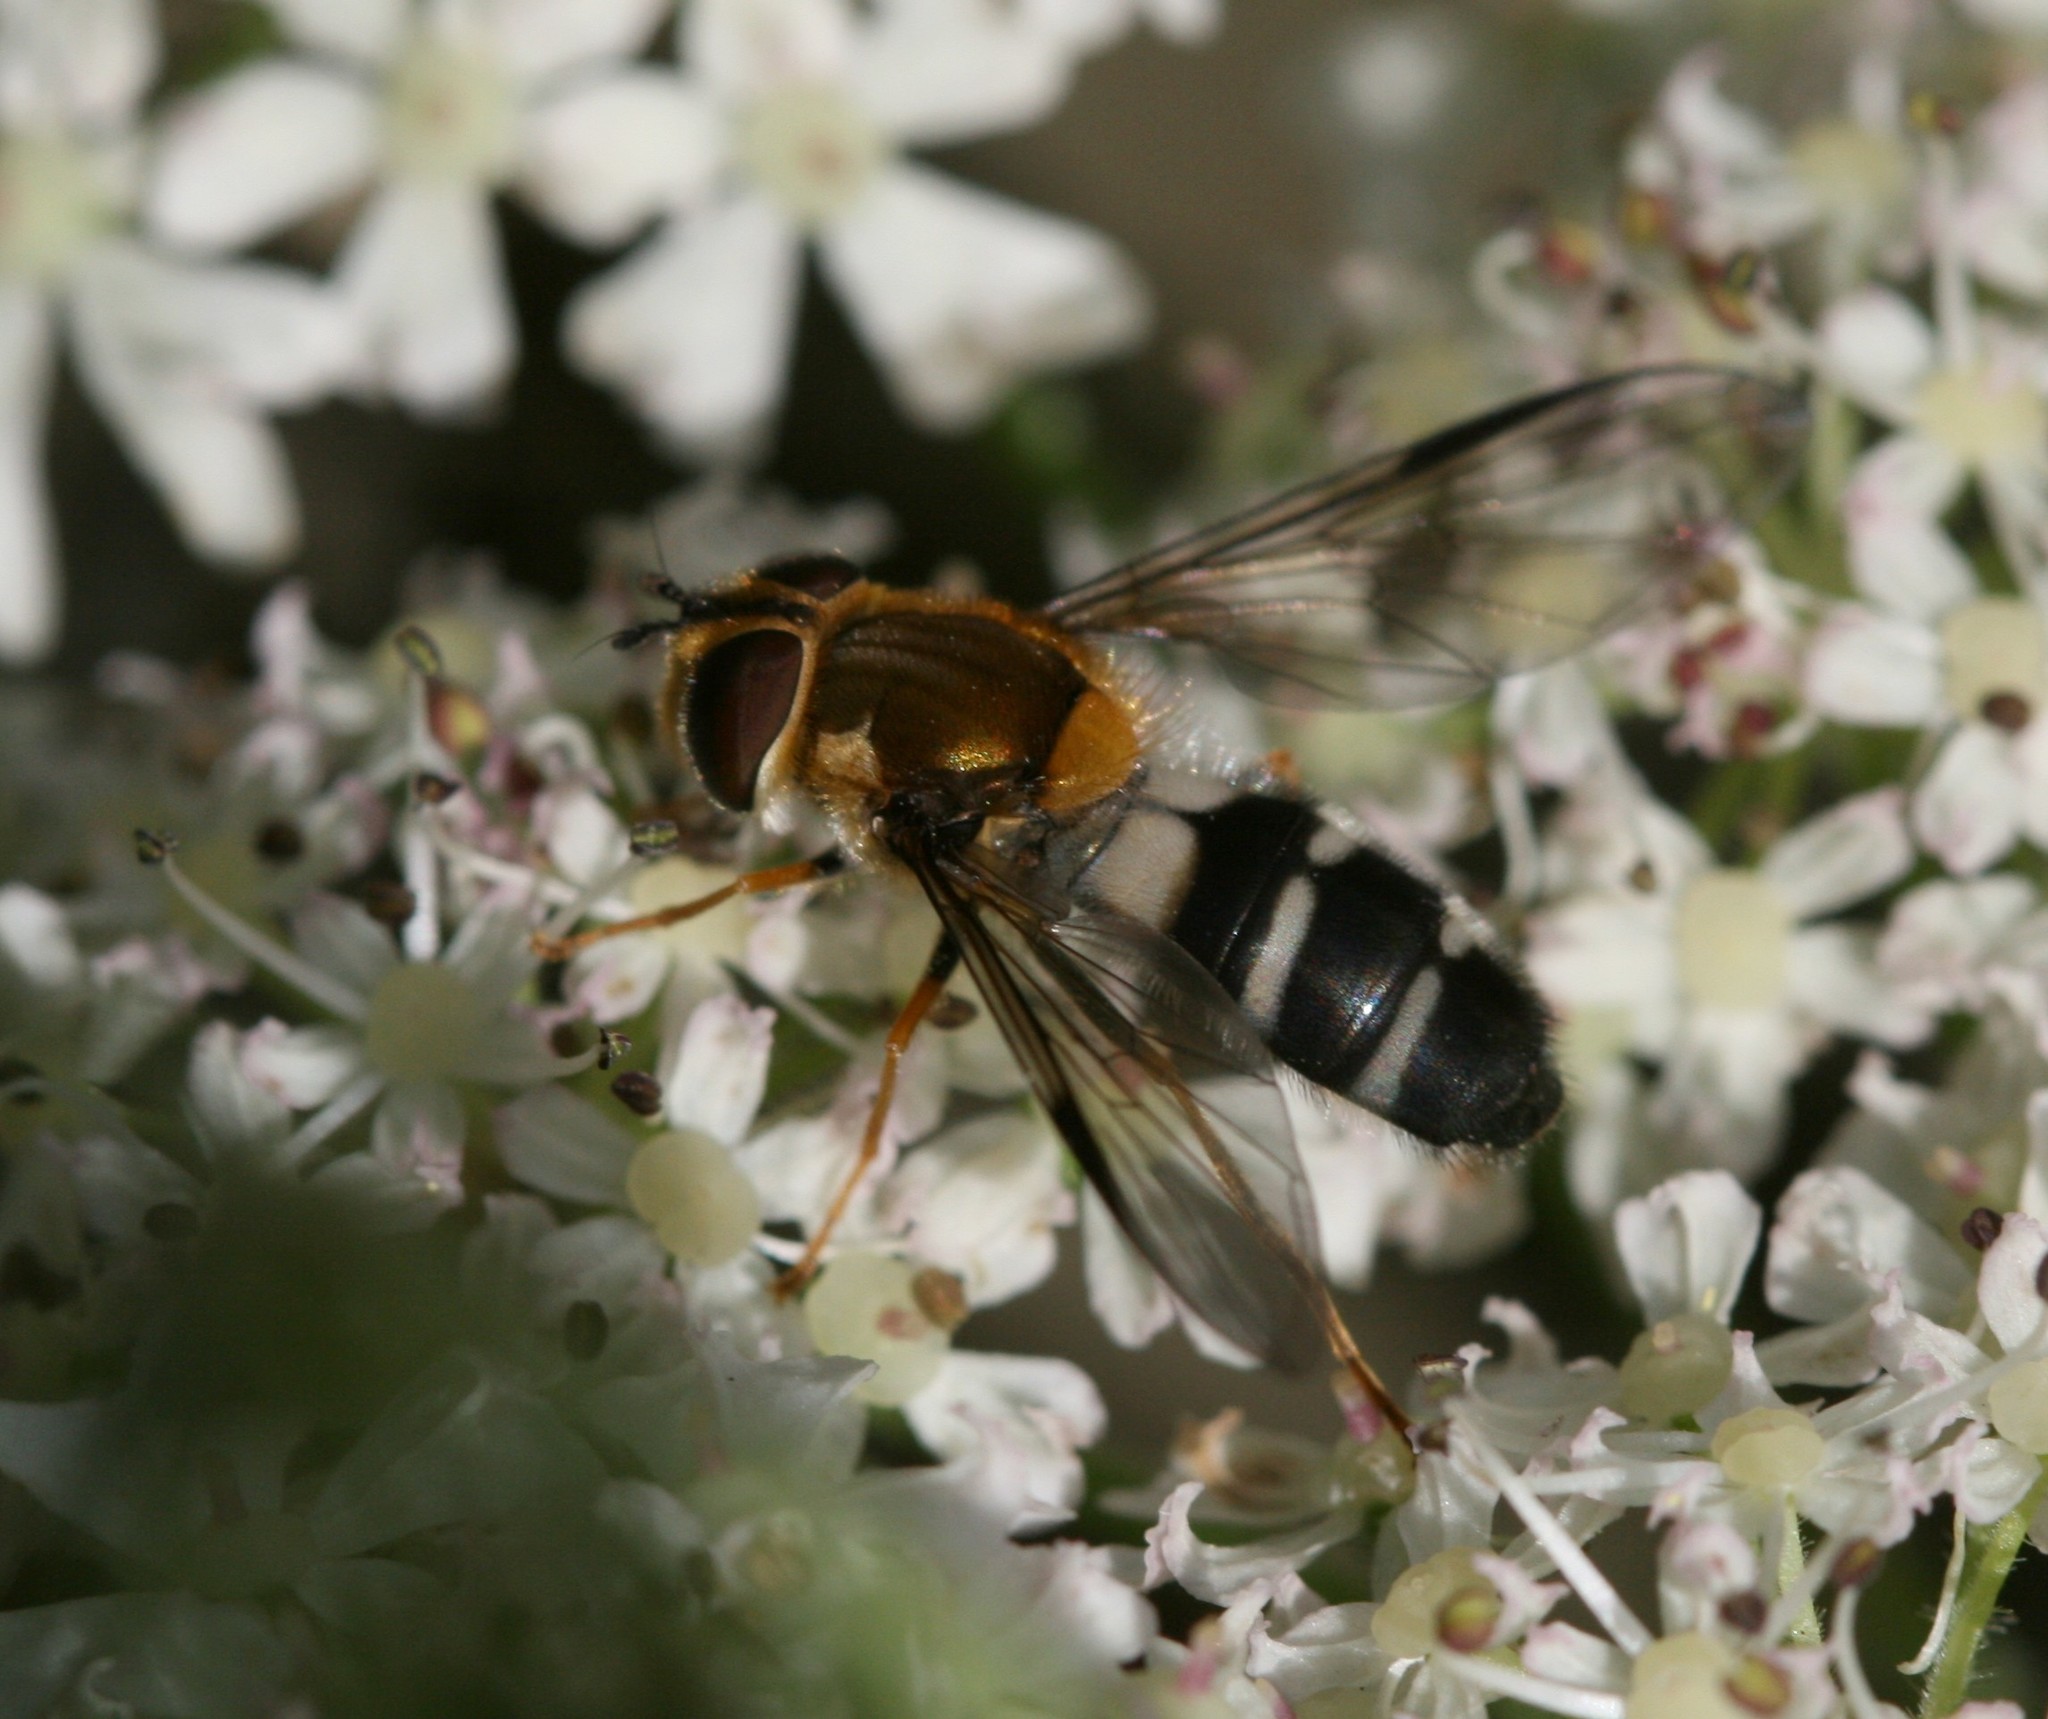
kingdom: Animalia
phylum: Arthropoda
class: Insecta
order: Diptera
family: Syrphidae
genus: Leucozona
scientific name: Leucozona glaucia
